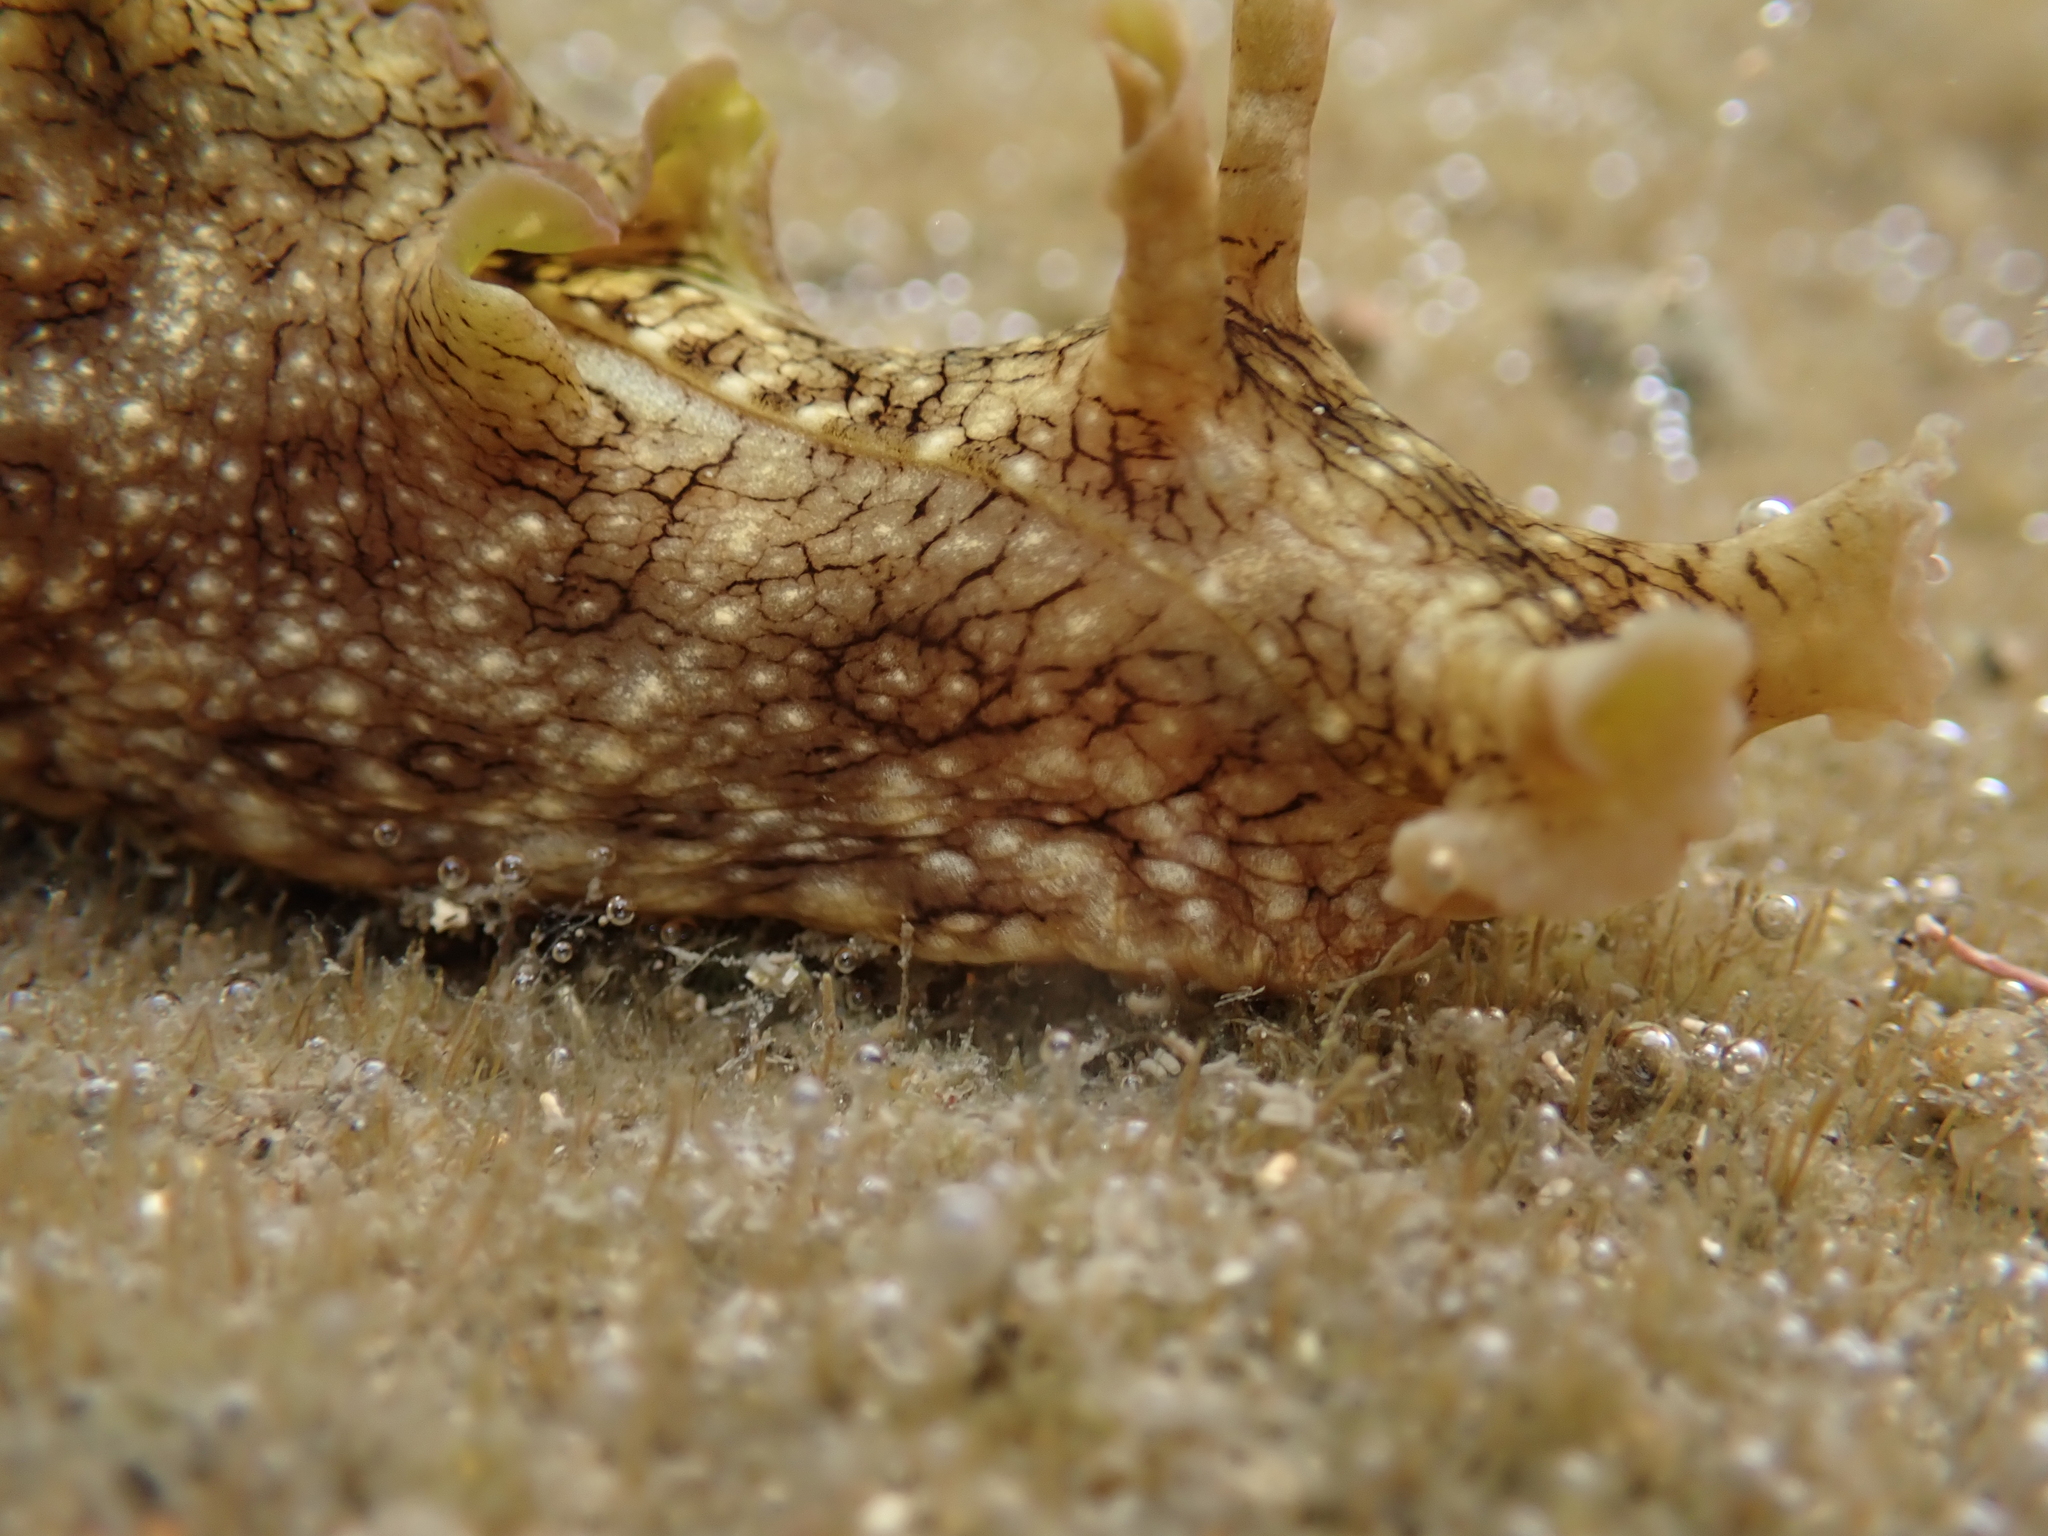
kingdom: Animalia
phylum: Mollusca
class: Gastropoda
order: Aplysiida
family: Aplysiidae
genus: Aplysia
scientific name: Aplysia argus
